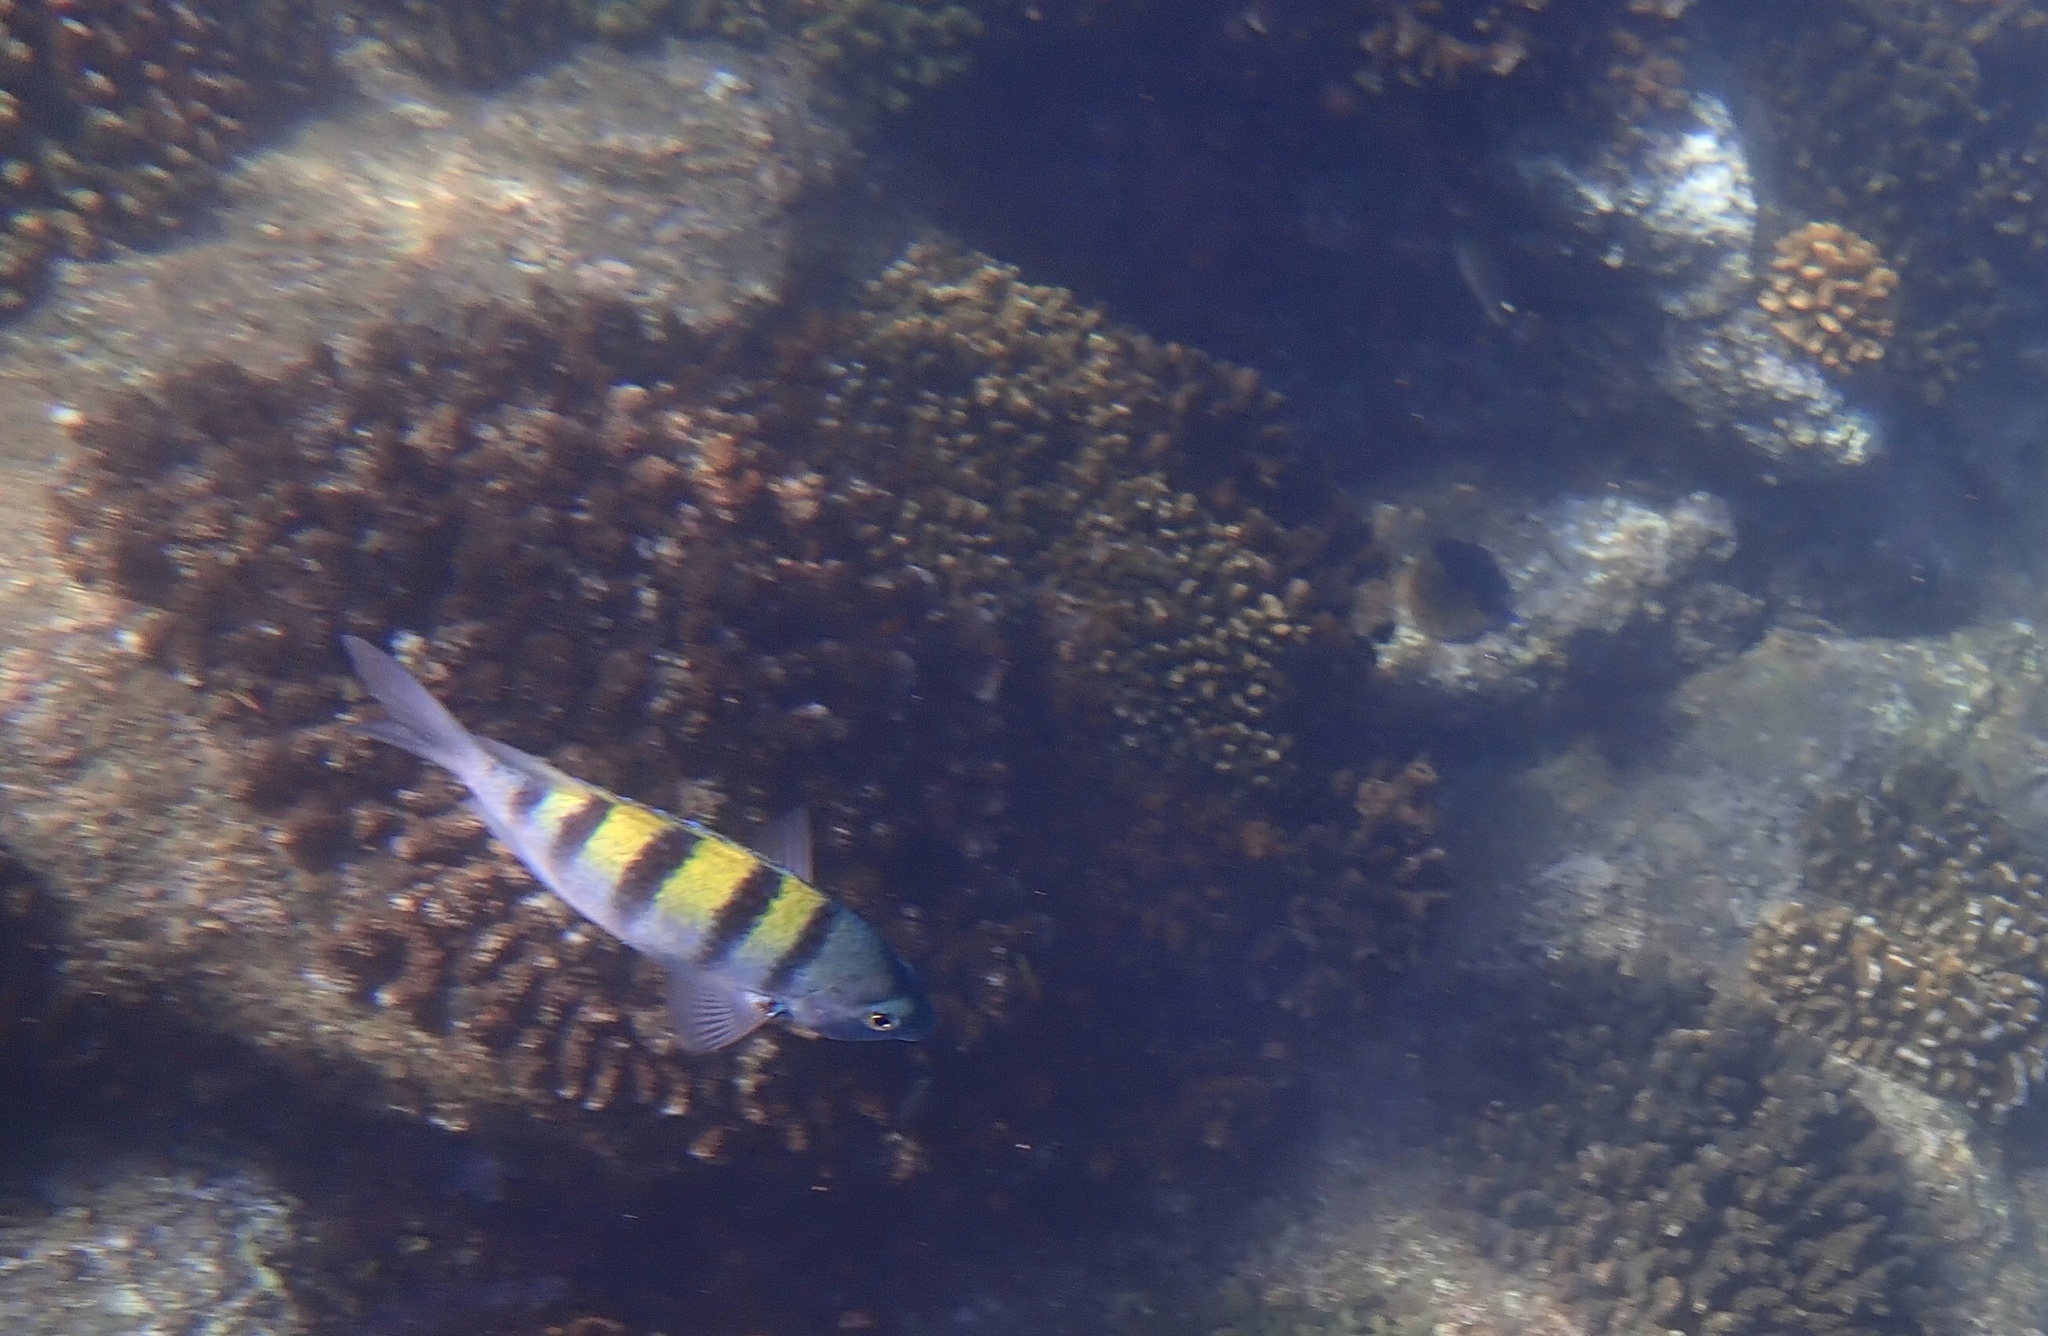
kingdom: Animalia
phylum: Chordata
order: Perciformes
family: Pomacentridae
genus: Abudefduf
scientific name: Abudefduf troschelii
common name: Panamic sergeant major
